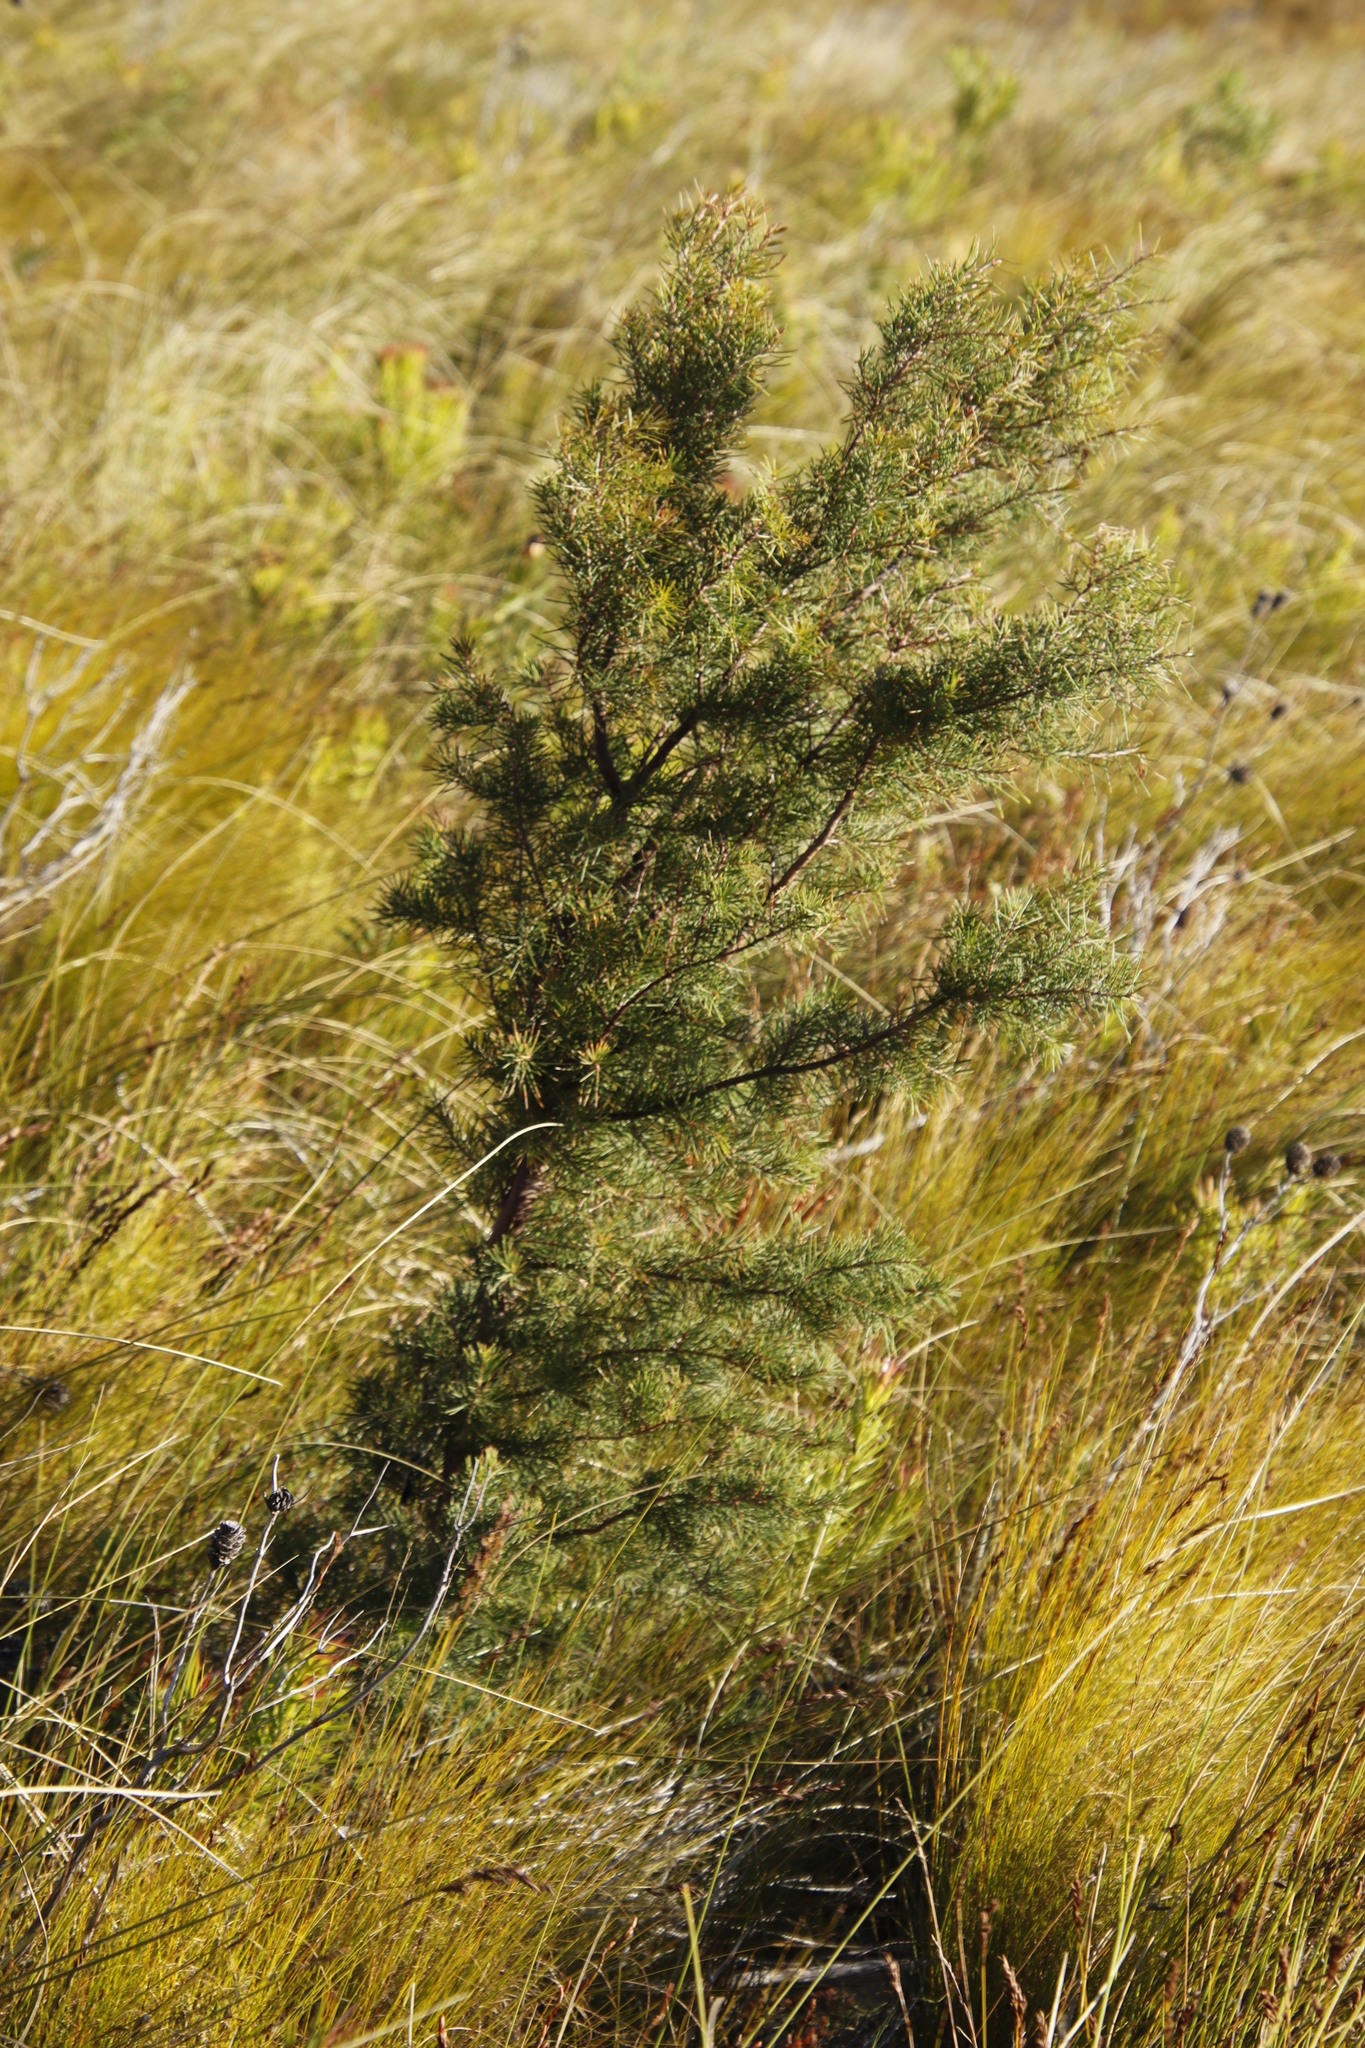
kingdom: Plantae
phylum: Tracheophyta
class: Magnoliopsida
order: Proteales
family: Proteaceae
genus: Hakea
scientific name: Hakea sericea
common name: Needle bush
